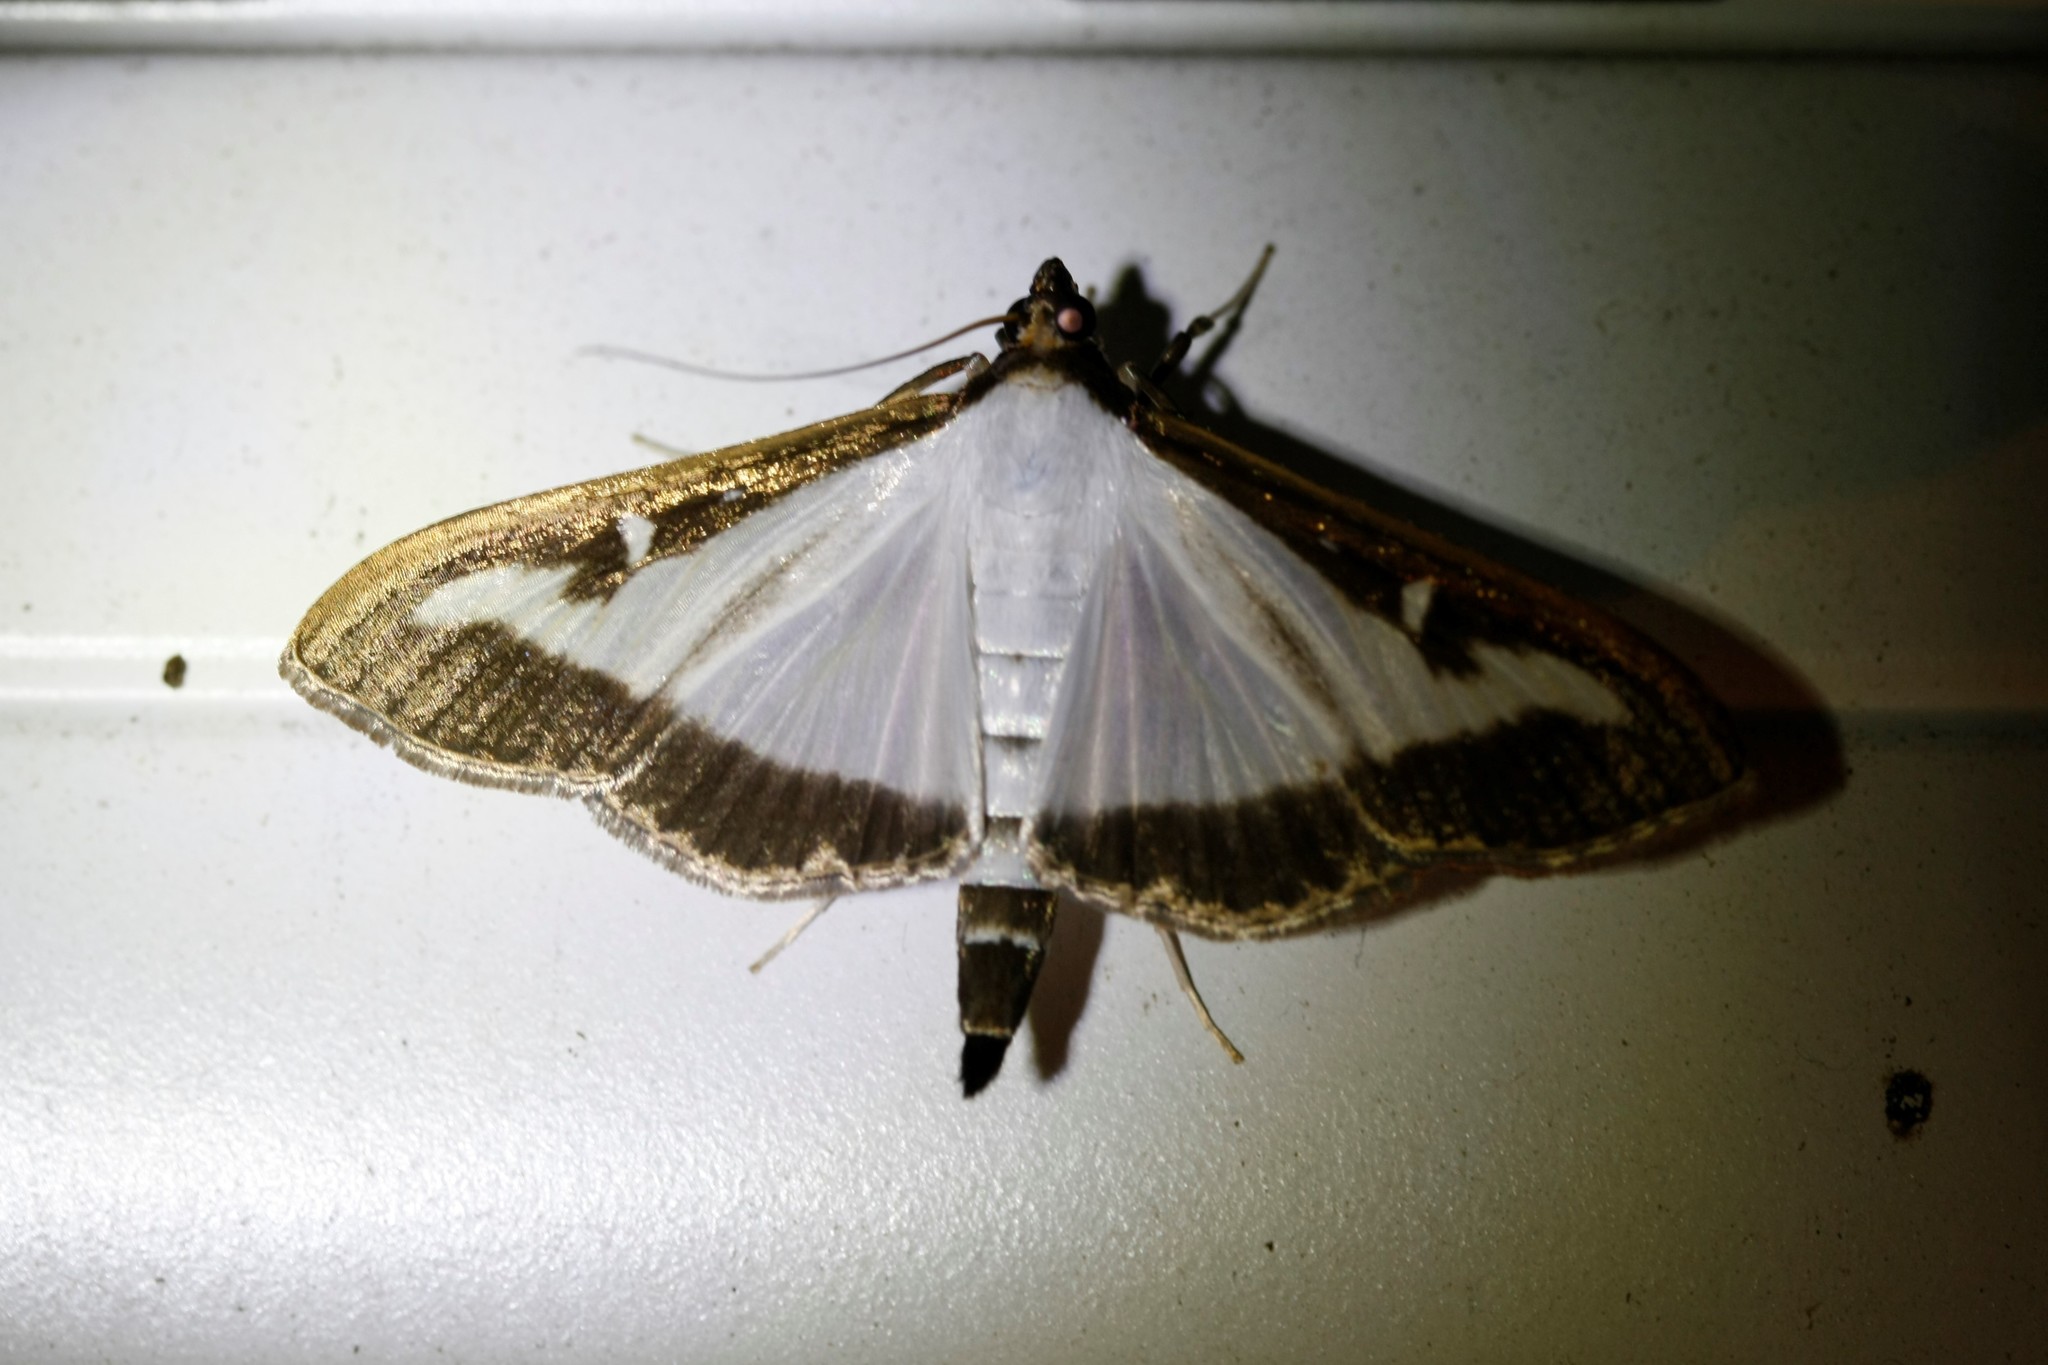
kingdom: Animalia
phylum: Arthropoda
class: Insecta
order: Lepidoptera
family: Crambidae
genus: Cydalima
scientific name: Cydalima perspectalis
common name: Box tree moth
